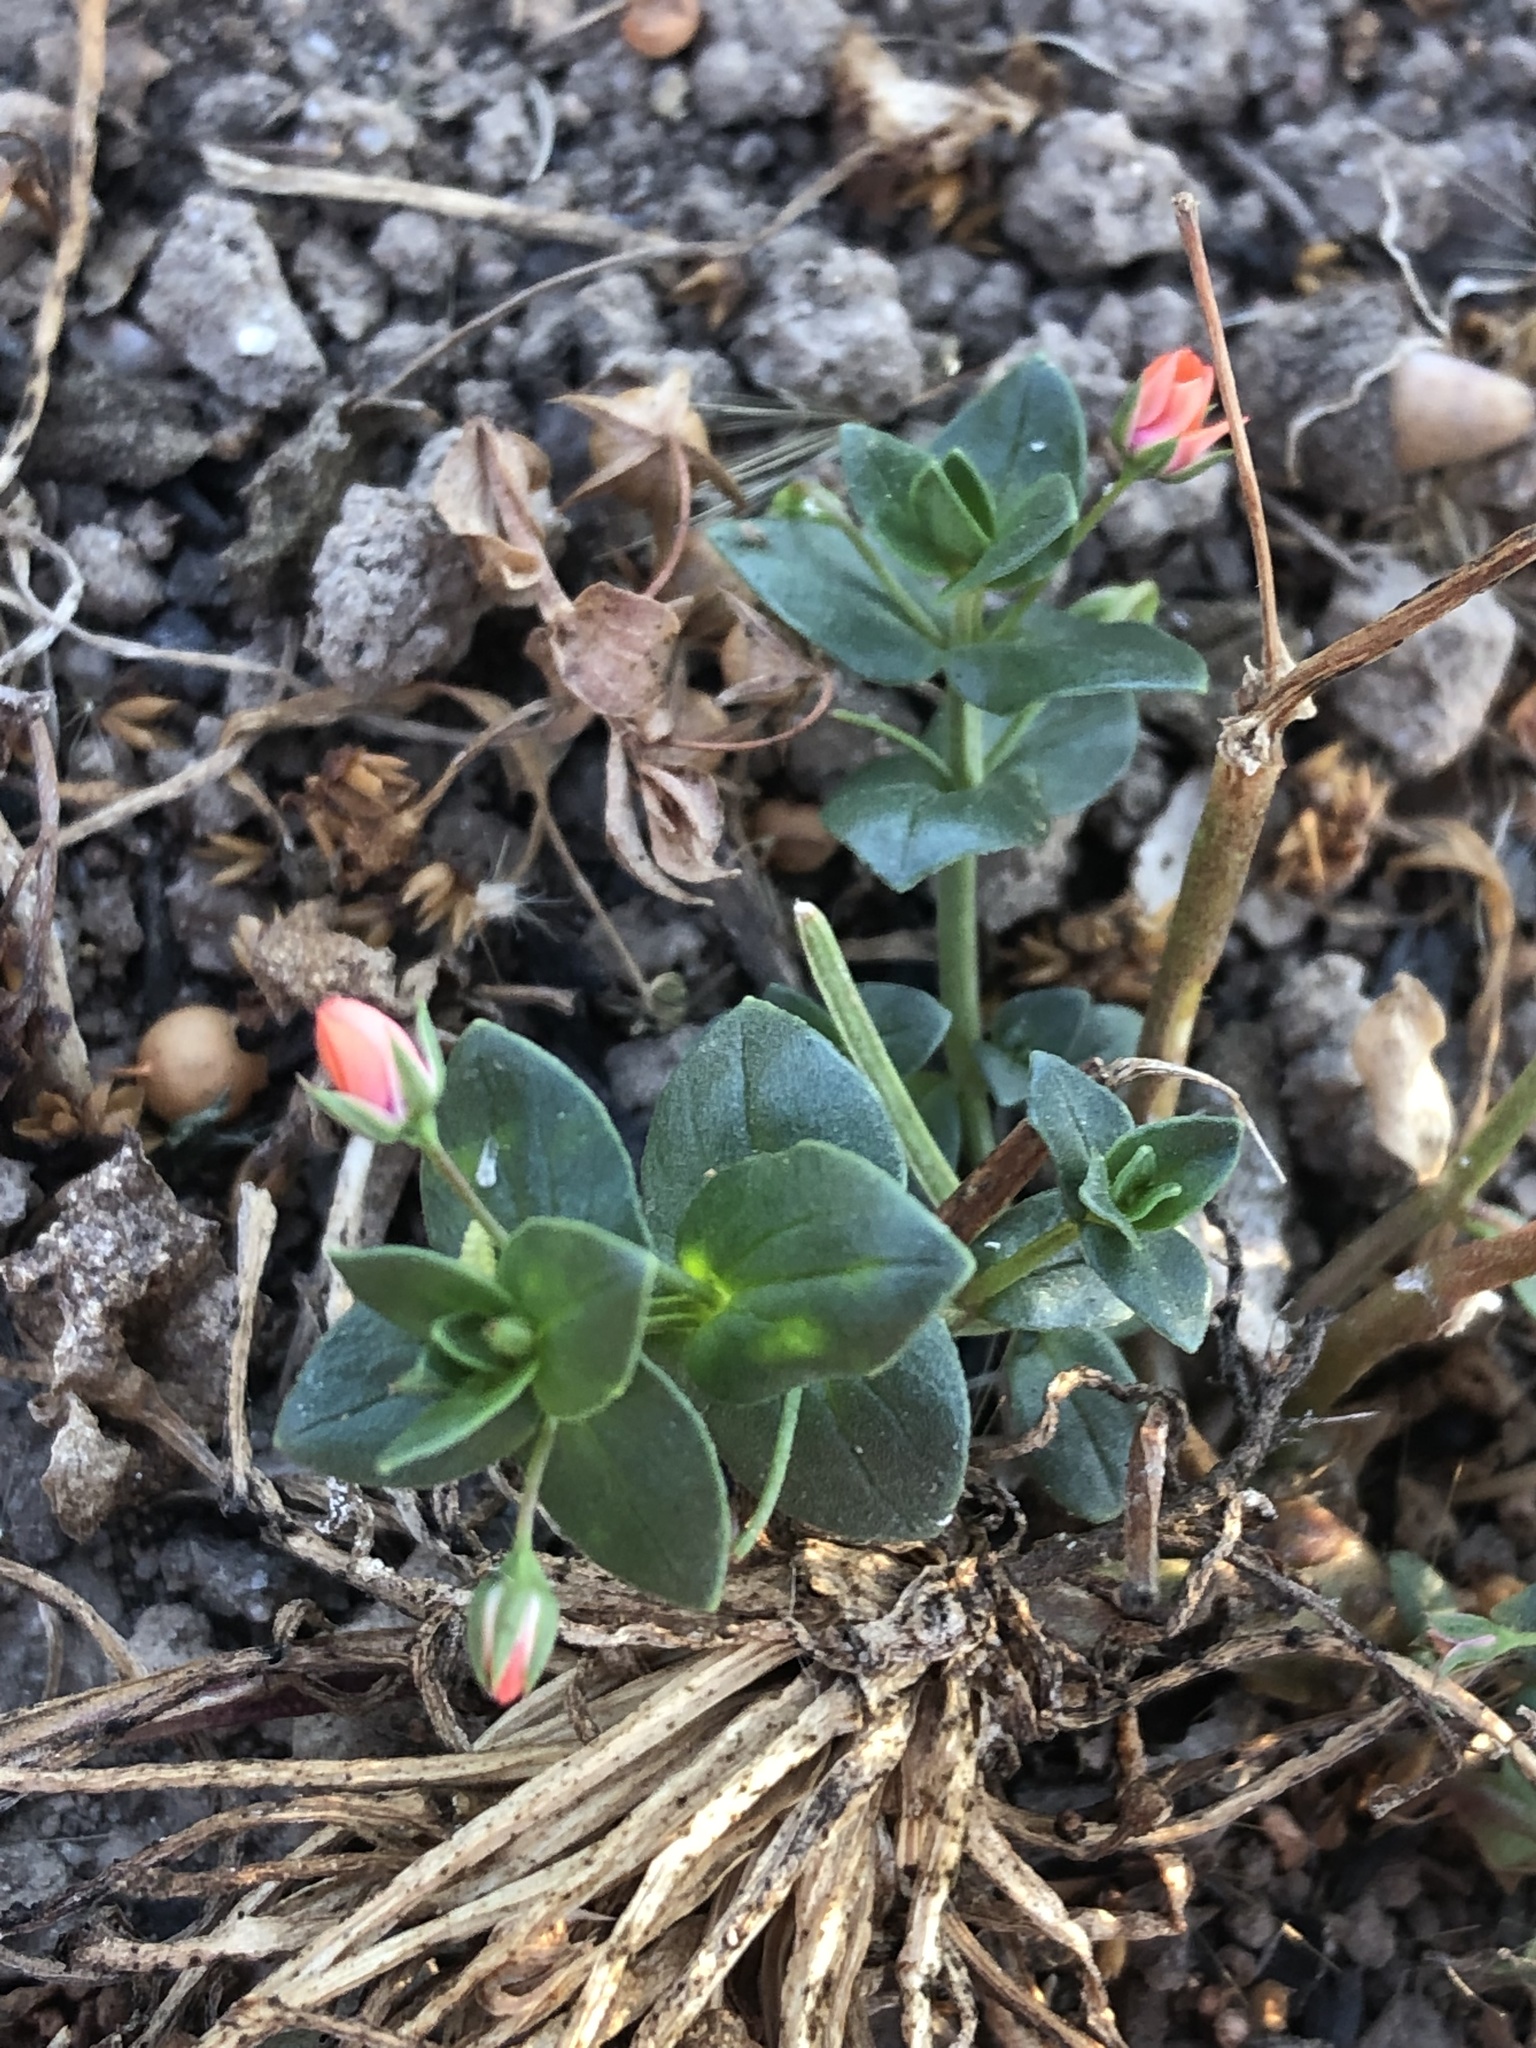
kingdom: Plantae
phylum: Tracheophyta
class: Magnoliopsida
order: Ericales
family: Primulaceae
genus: Lysimachia
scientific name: Lysimachia arvensis
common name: Scarlet pimpernel
